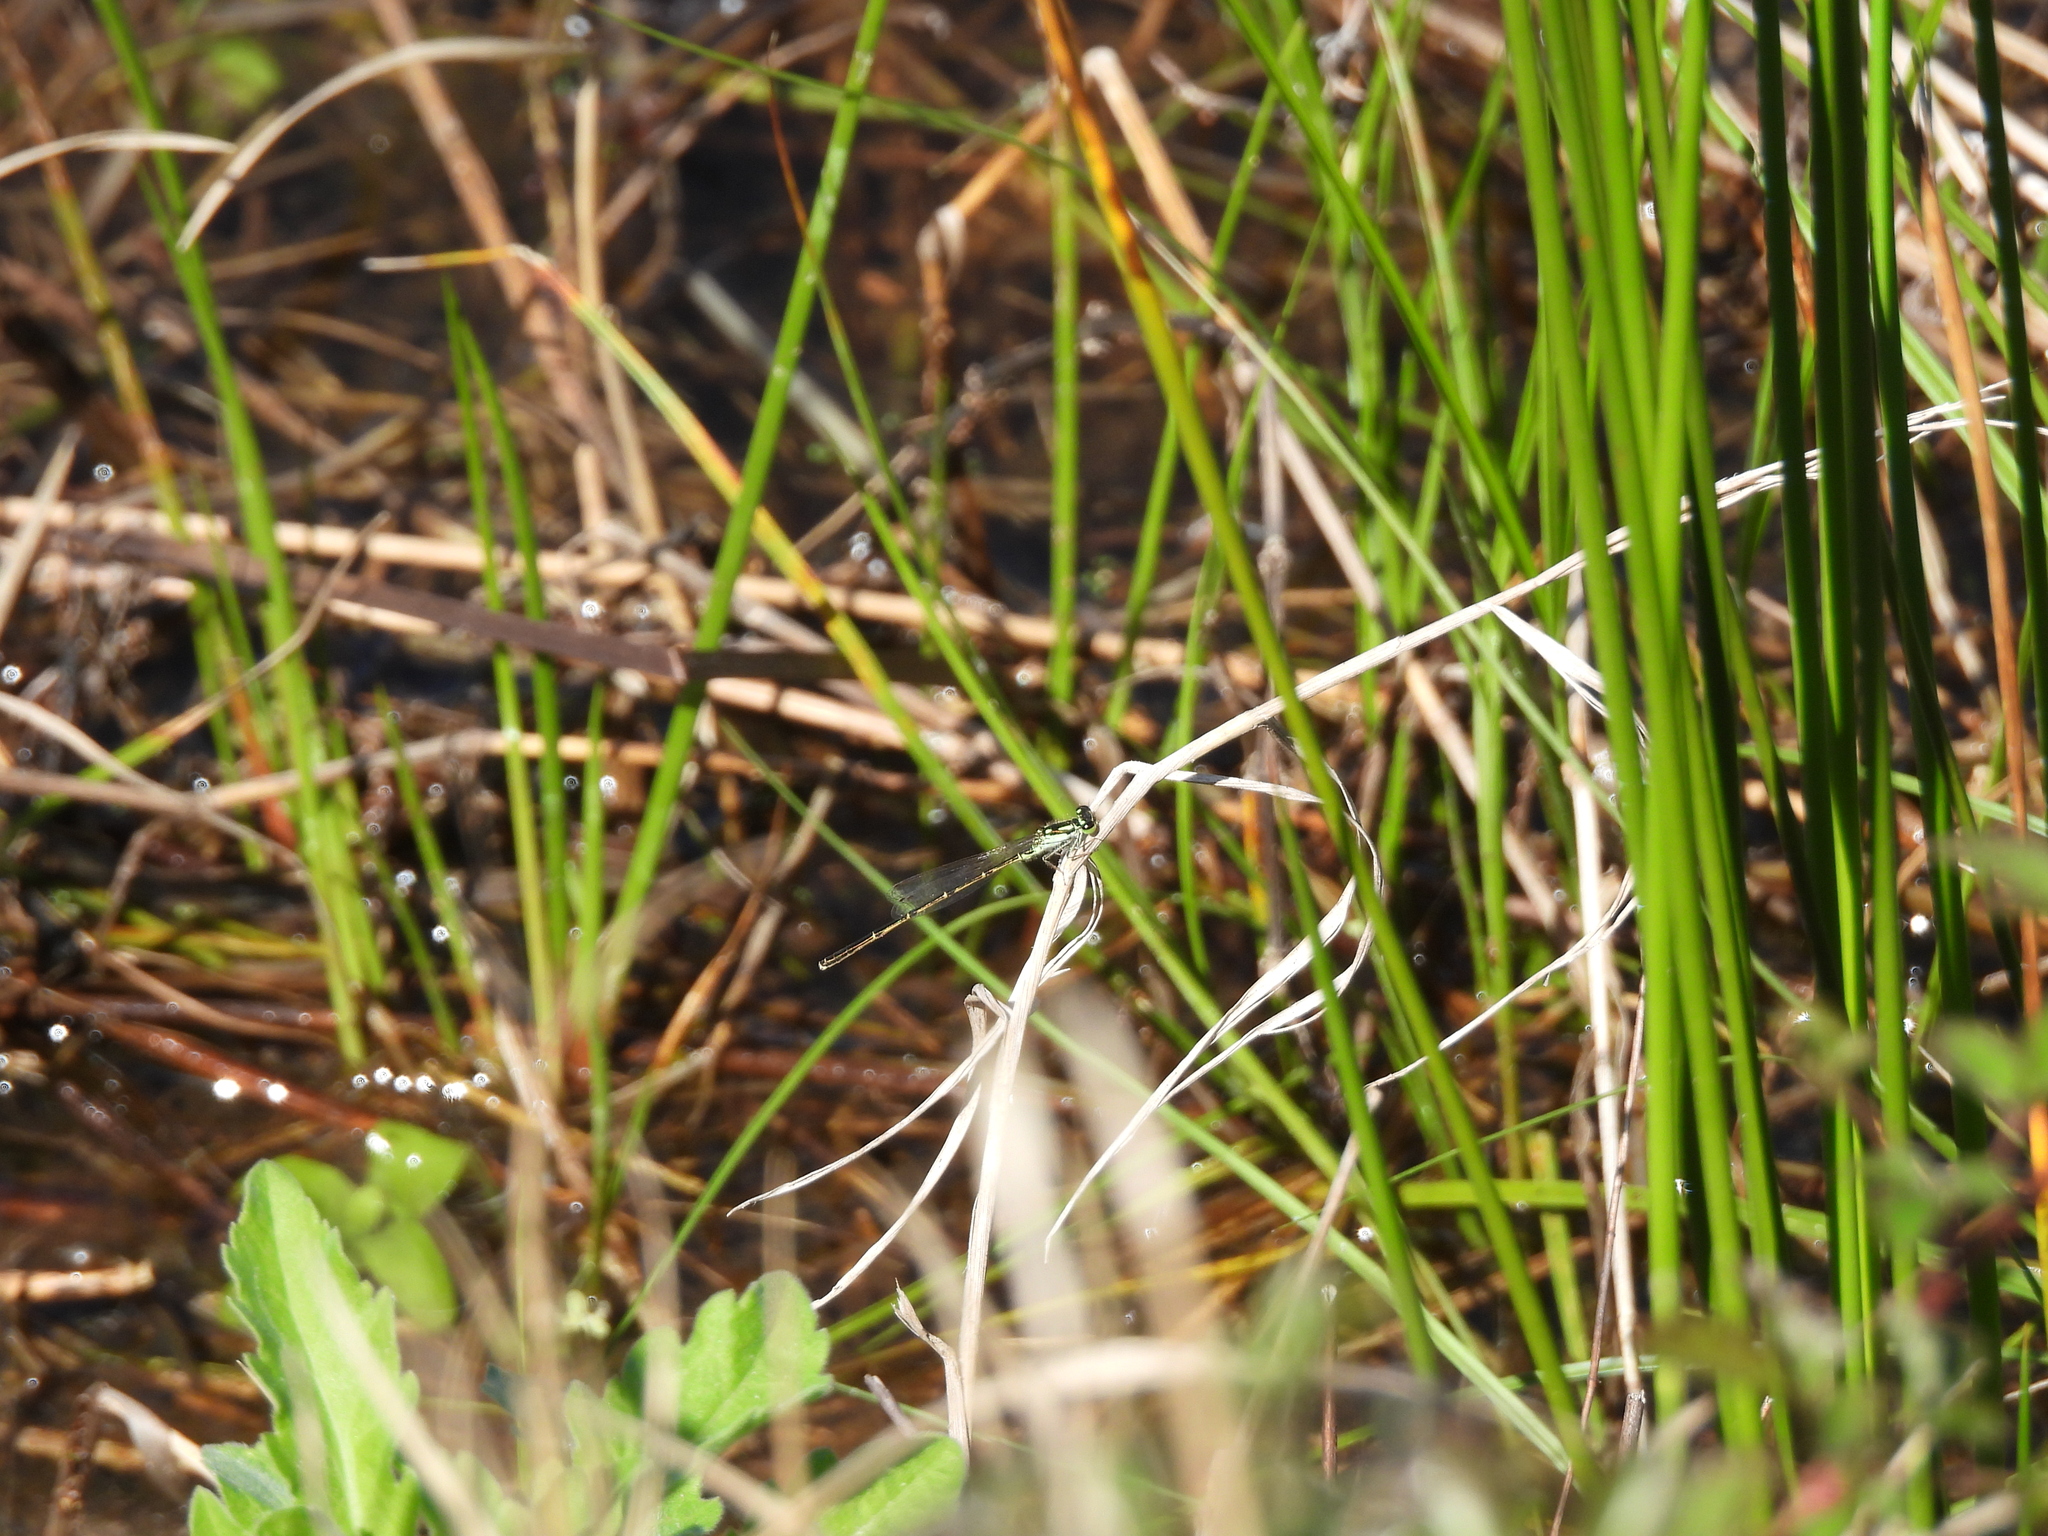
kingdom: Animalia
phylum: Arthropoda
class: Insecta
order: Odonata
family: Coenagrionidae
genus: Ischnura
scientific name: Ischnura posita
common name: Fragile forktail
